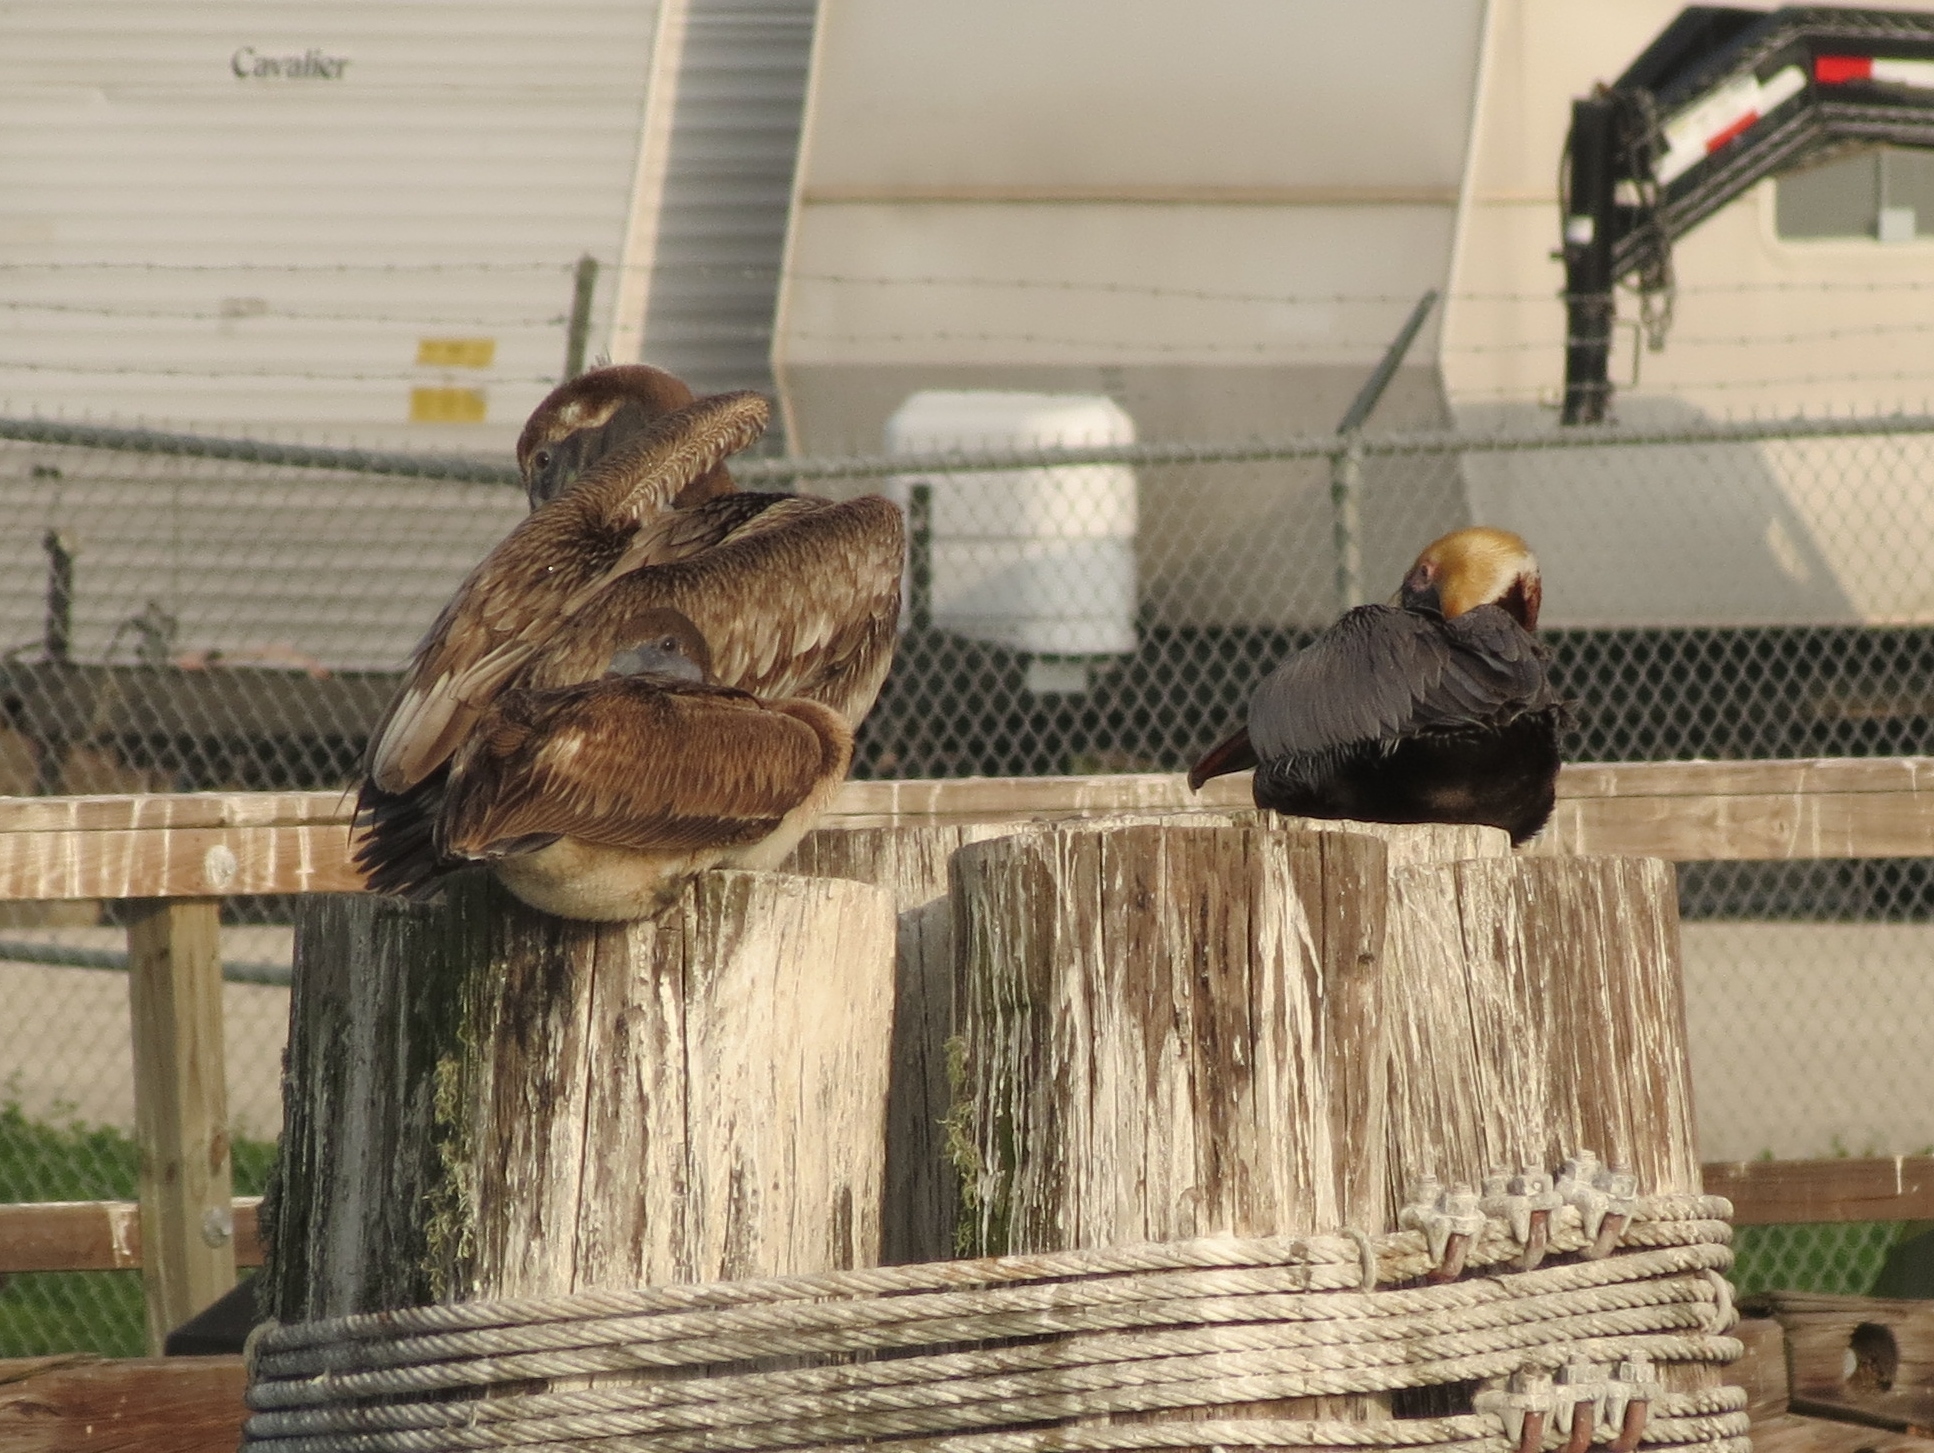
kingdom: Animalia
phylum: Chordata
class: Aves
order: Pelecaniformes
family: Pelecanidae
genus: Pelecanus
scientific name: Pelecanus occidentalis
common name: Brown pelican
